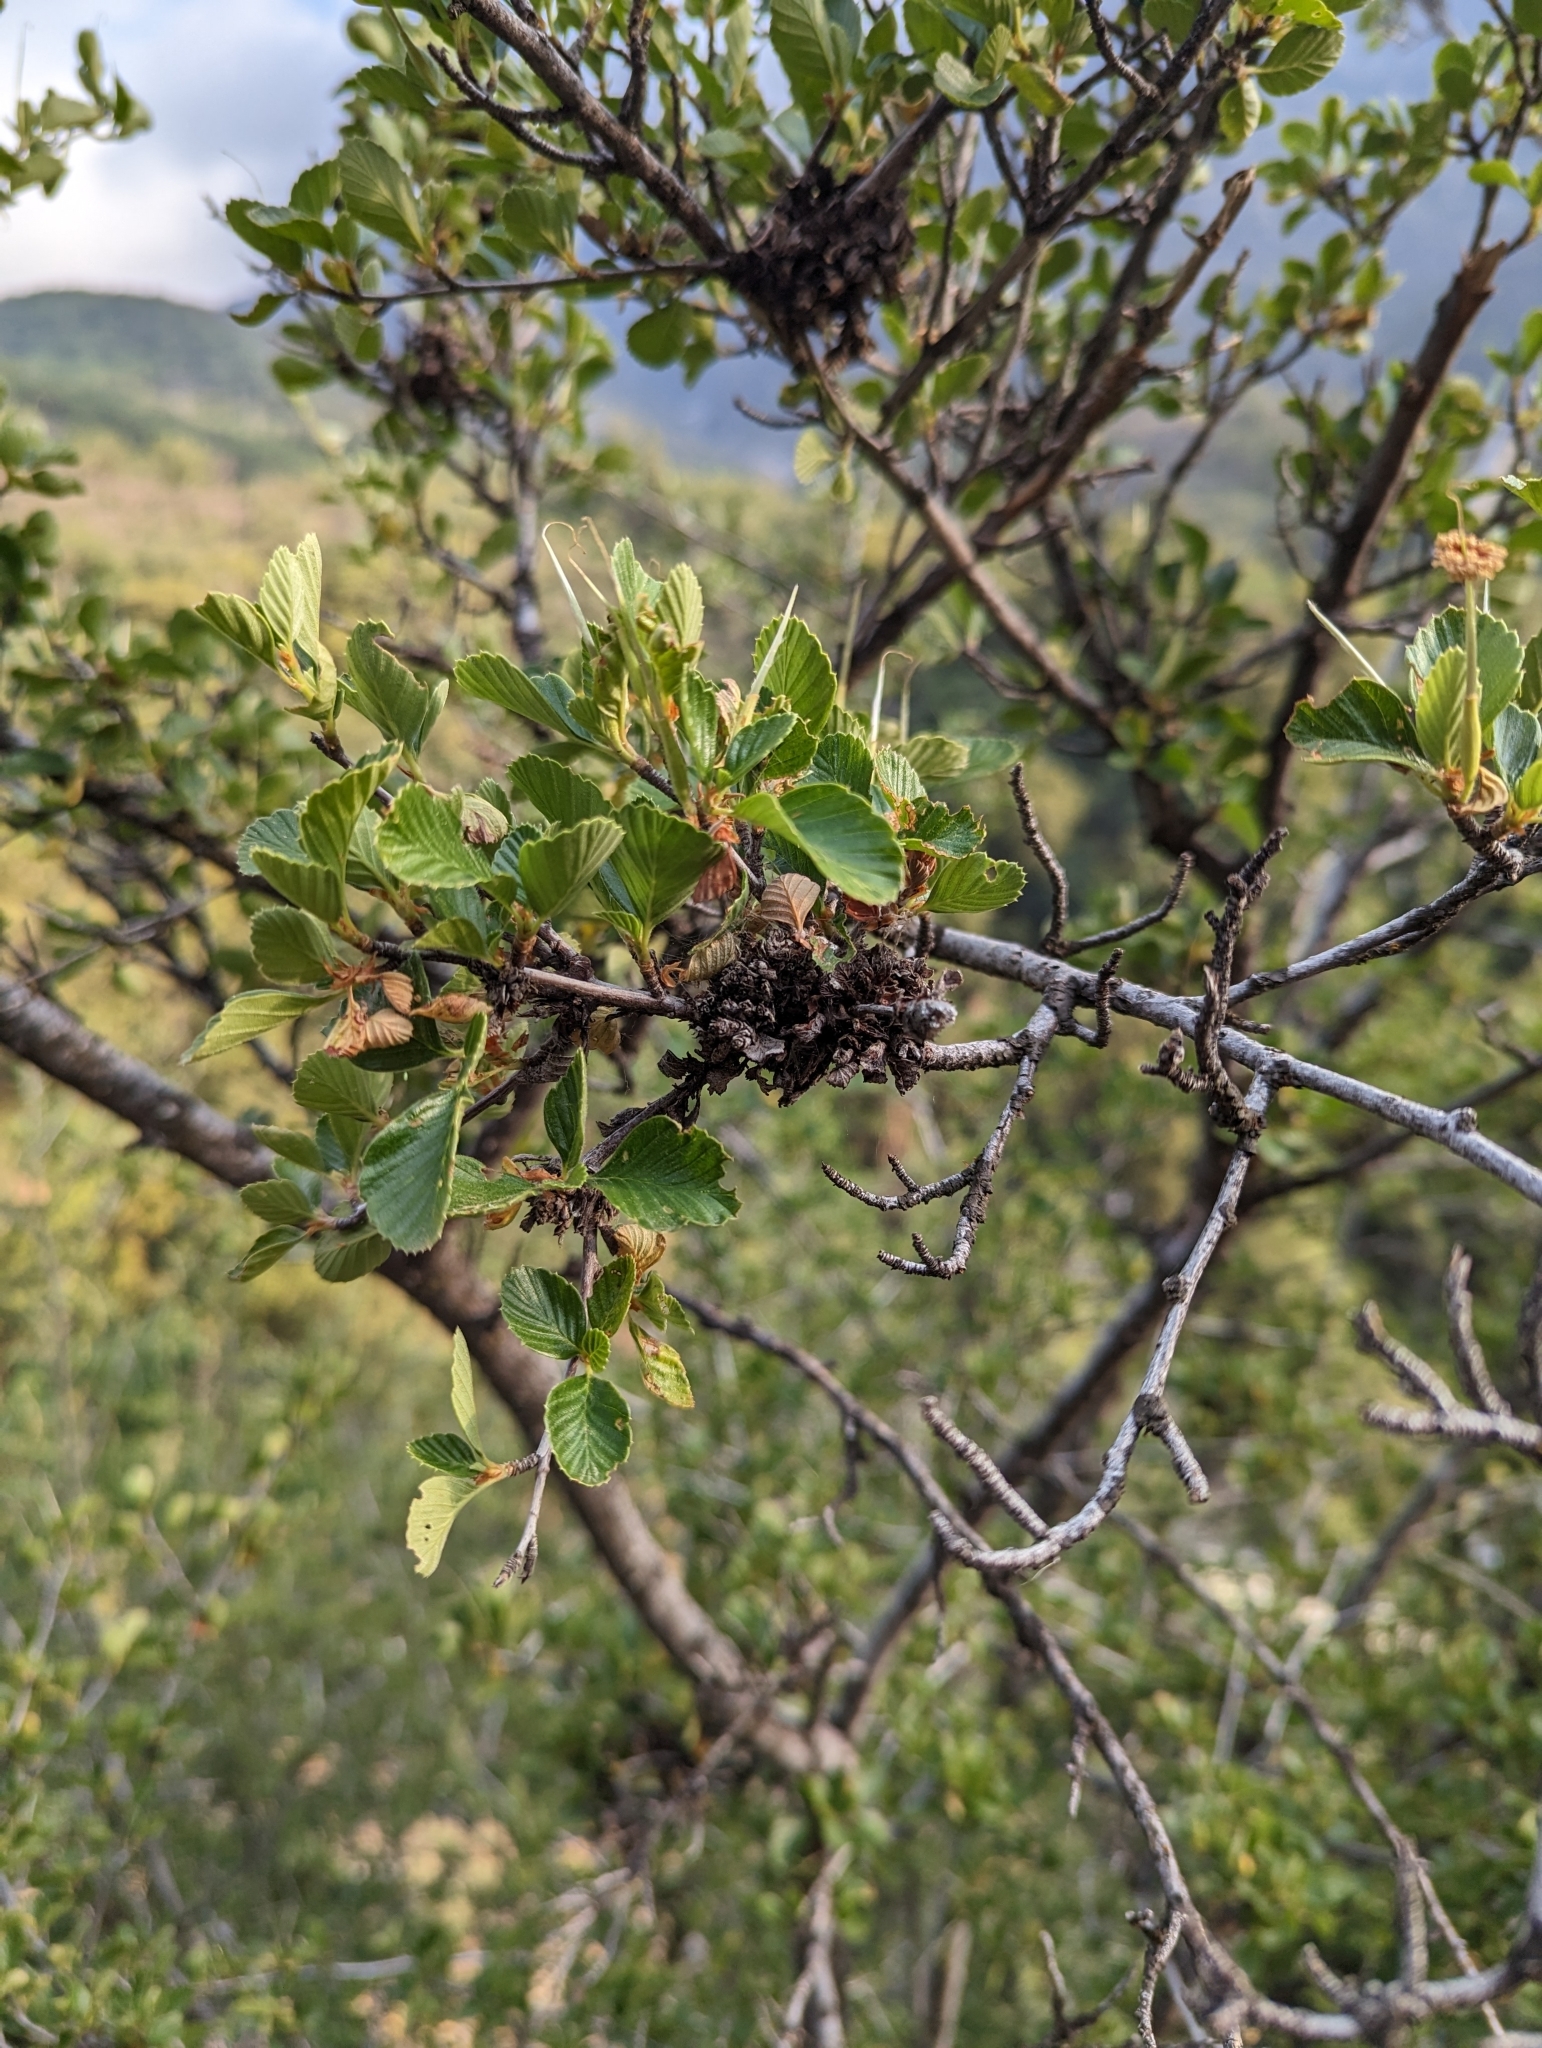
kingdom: Plantae
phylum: Tracheophyta
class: Magnoliopsida
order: Rosales
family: Rosaceae
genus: Cercocarpus
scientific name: Cercocarpus betuloides
